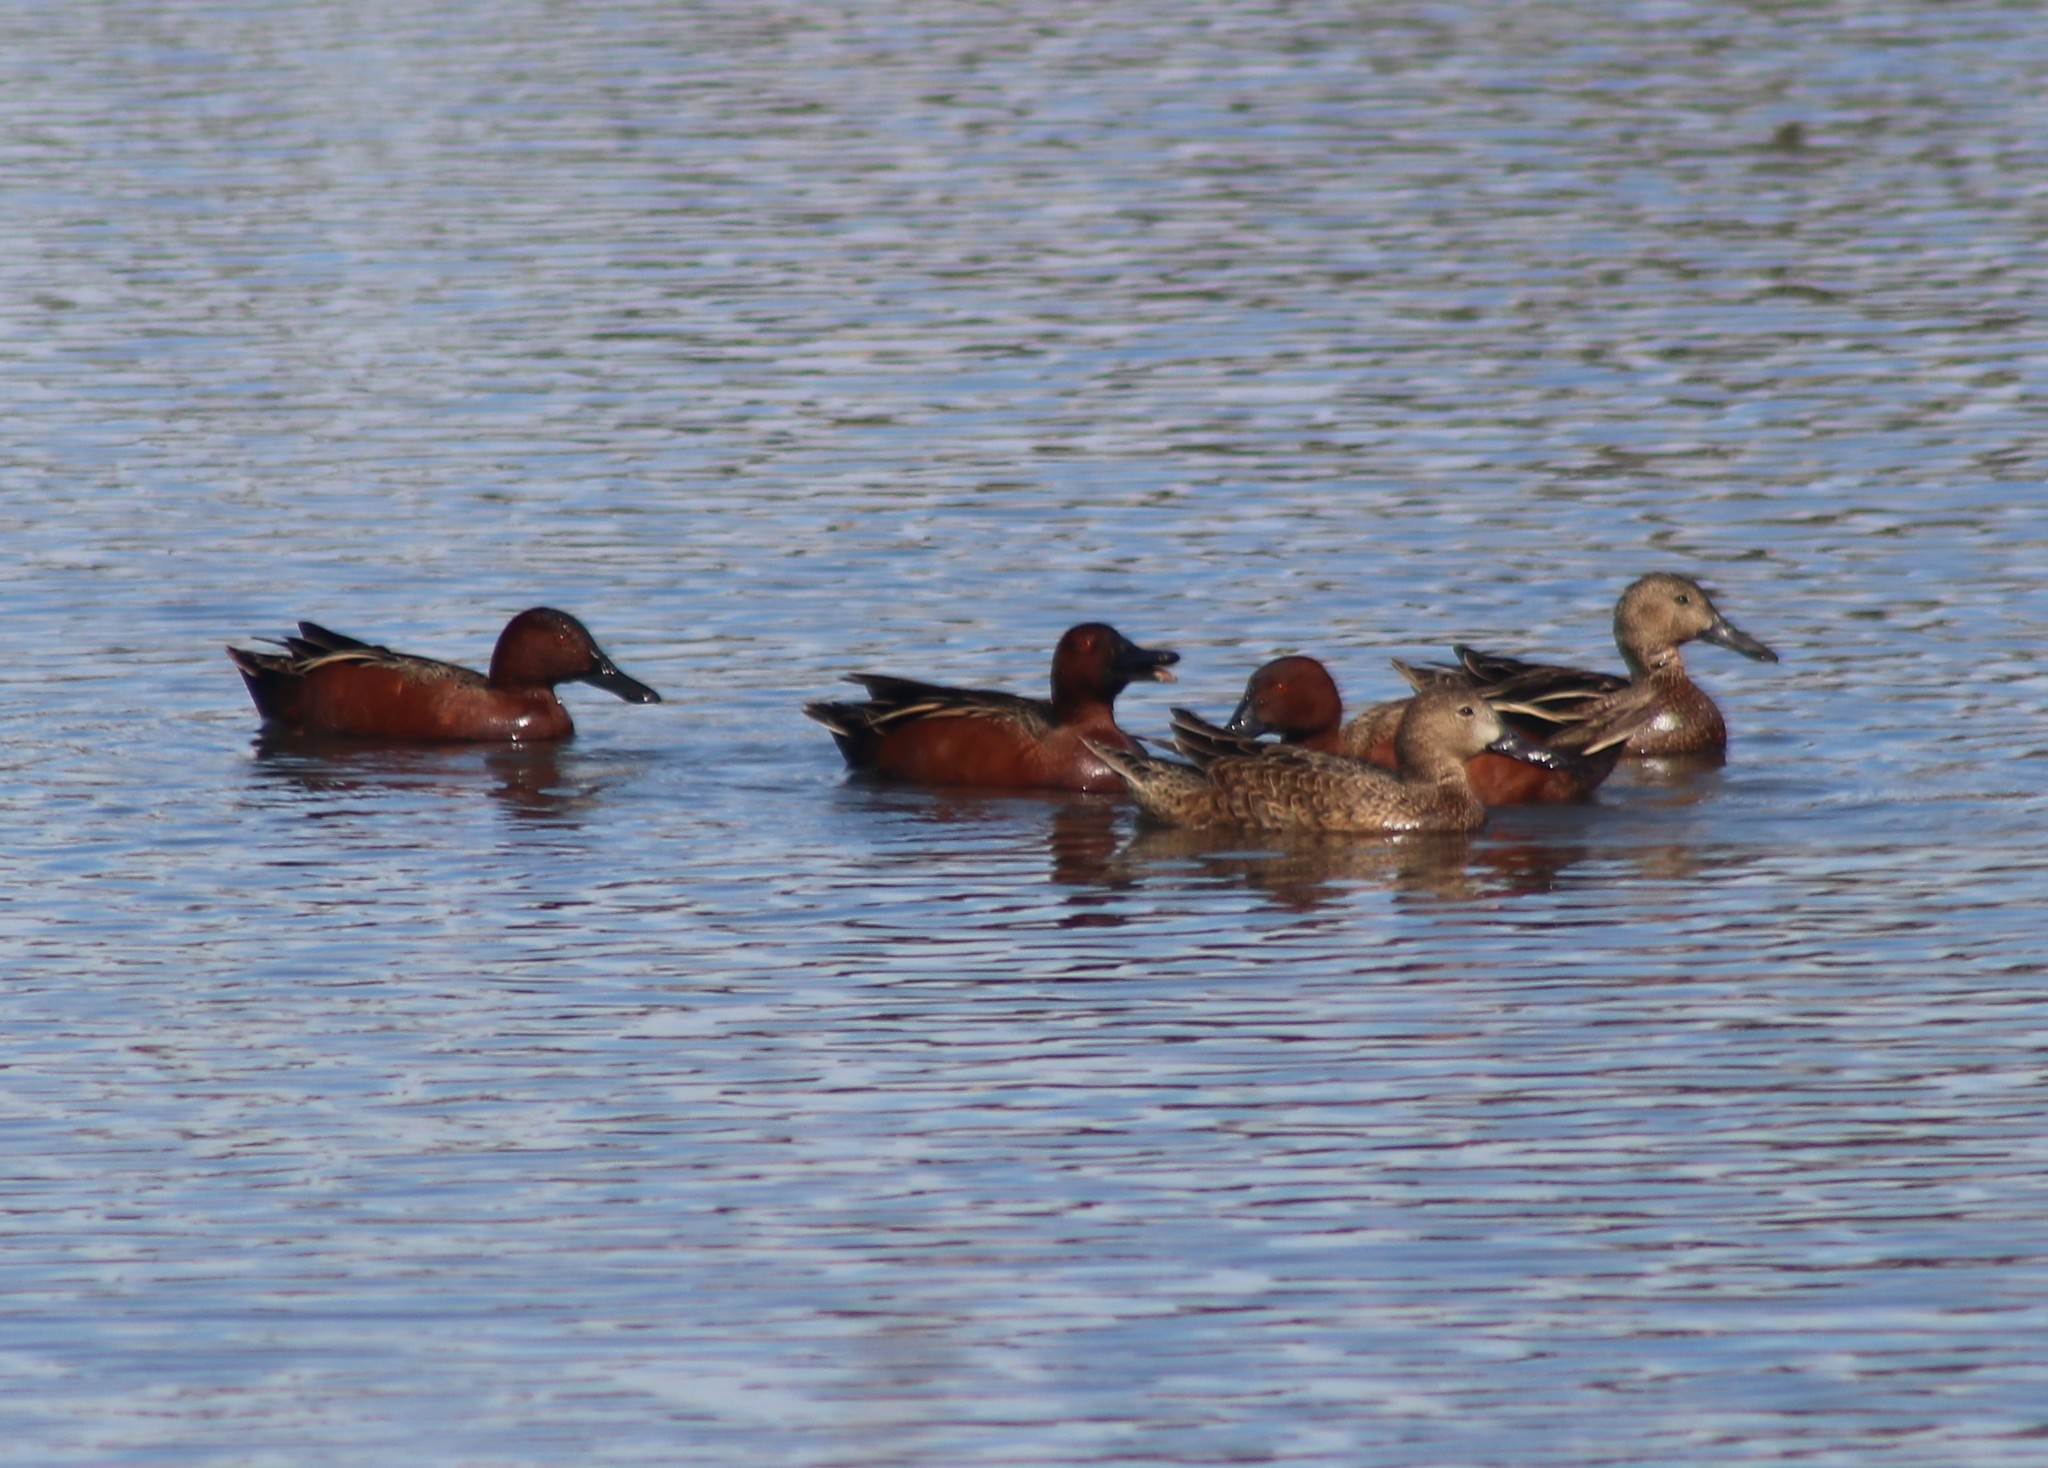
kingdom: Animalia
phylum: Chordata
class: Aves
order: Anseriformes
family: Anatidae
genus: Spatula
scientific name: Spatula cyanoptera
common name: Cinnamon teal
